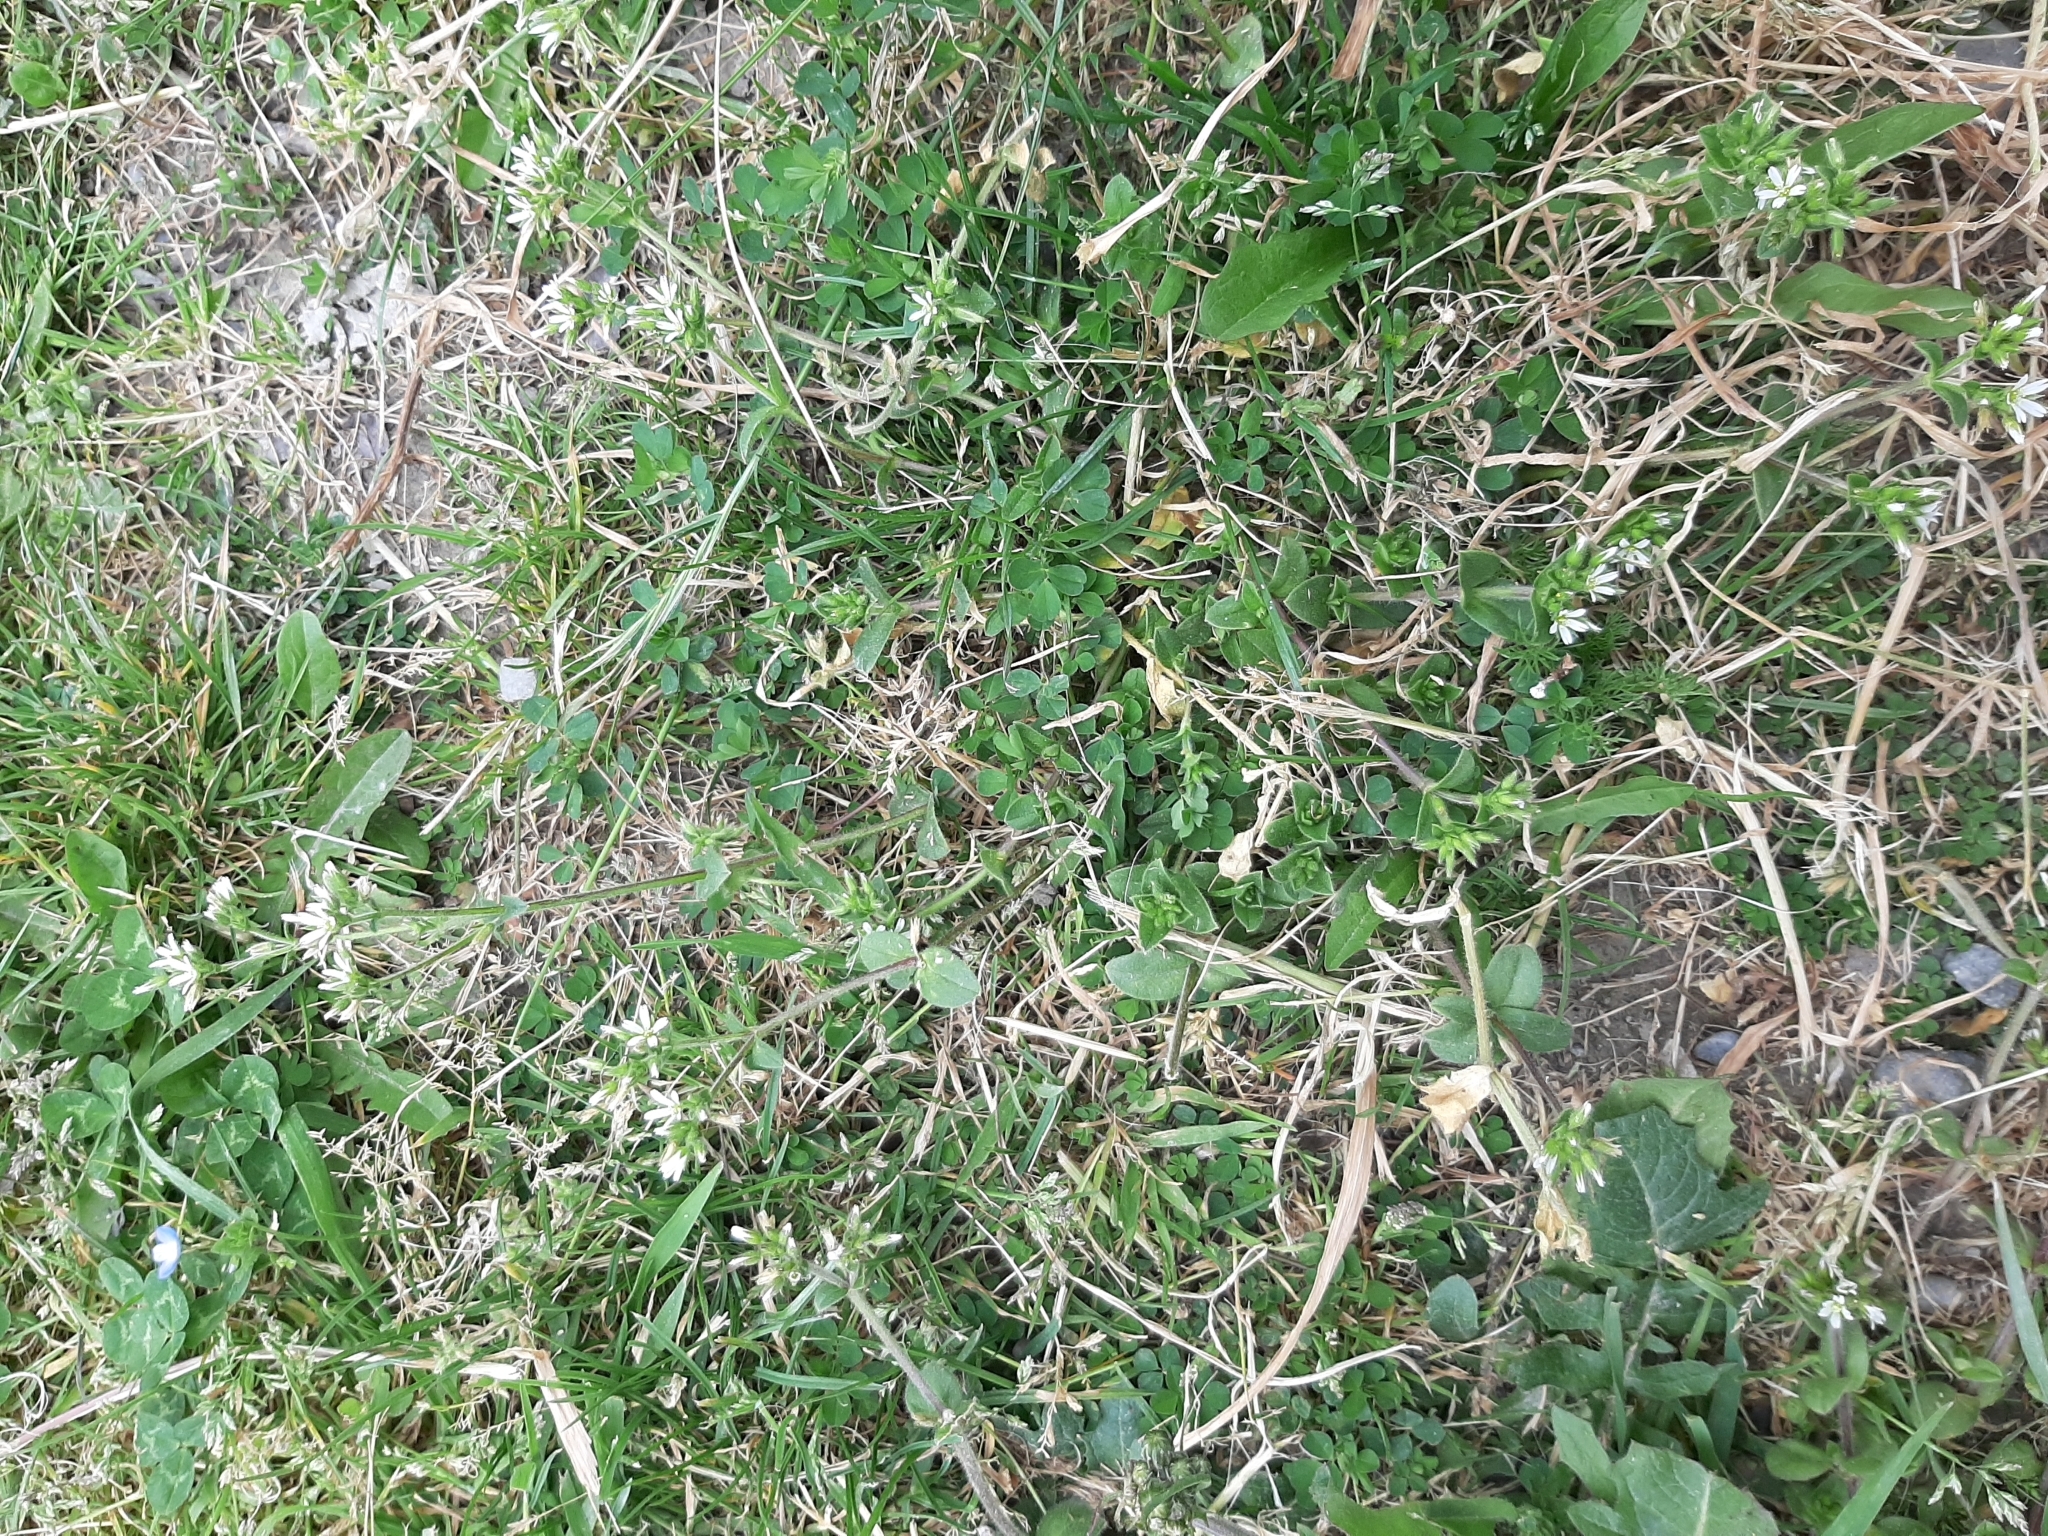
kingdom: Plantae
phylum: Tracheophyta
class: Magnoliopsida
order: Caryophyllales
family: Caryophyllaceae
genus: Cerastium
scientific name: Cerastium fontanum
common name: Common mouse-ear
